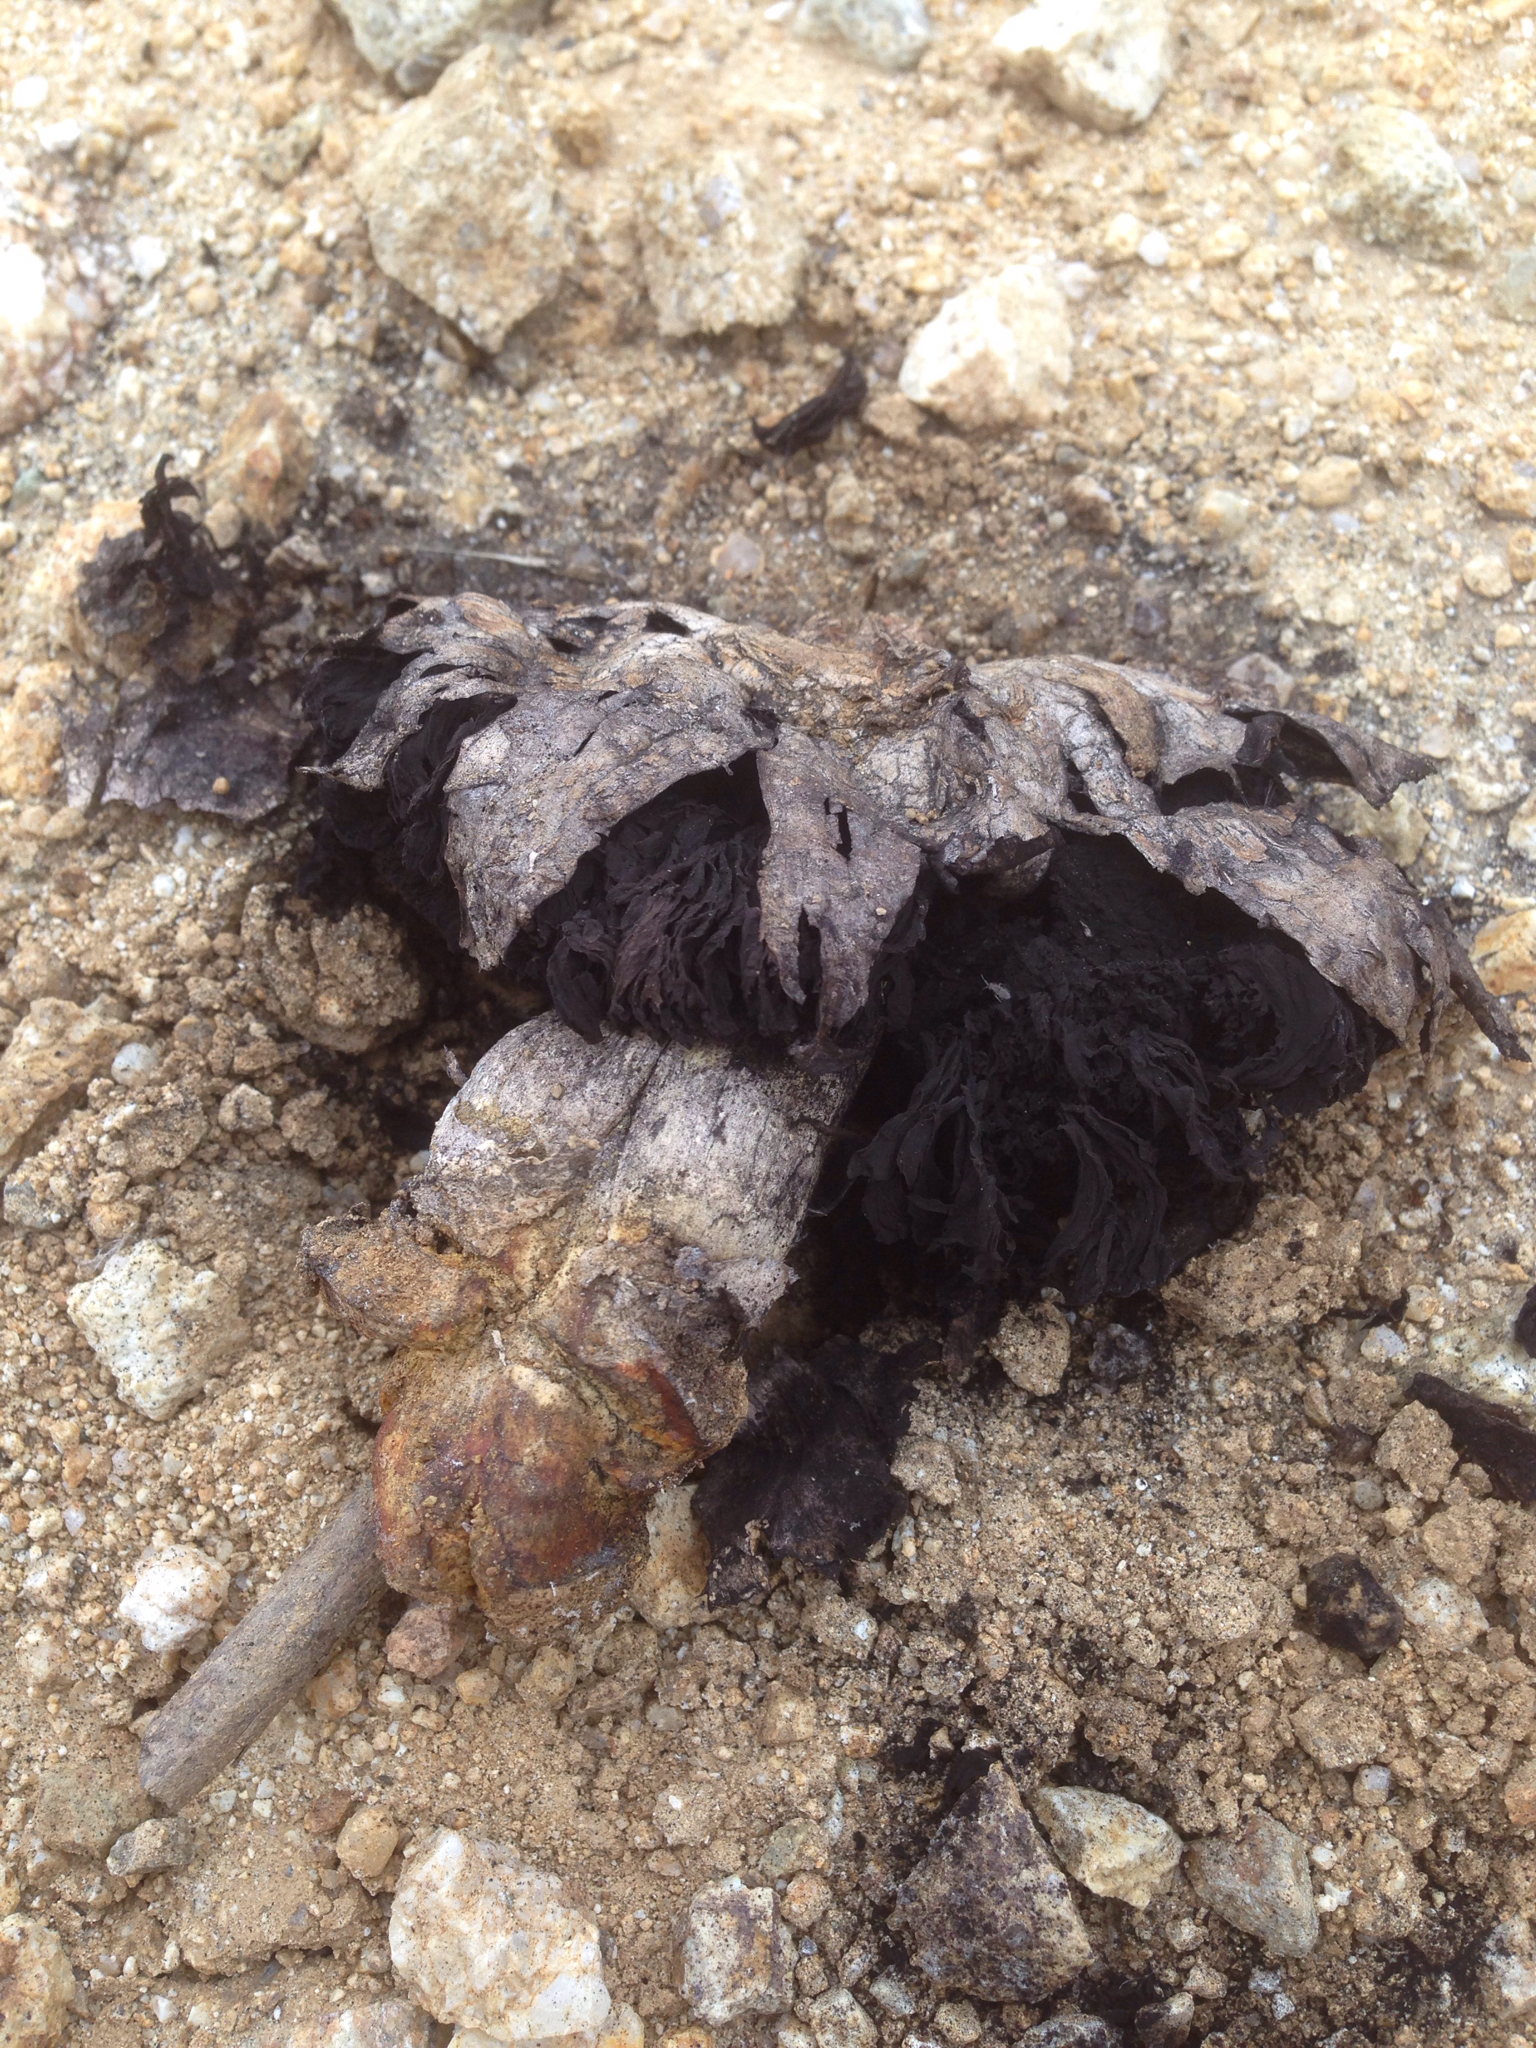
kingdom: Fungi
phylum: Basidiomycota
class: Agaricomycetes
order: Agaricales
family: Agaricaceae
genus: Agaricus
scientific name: Agaricus deserticola
